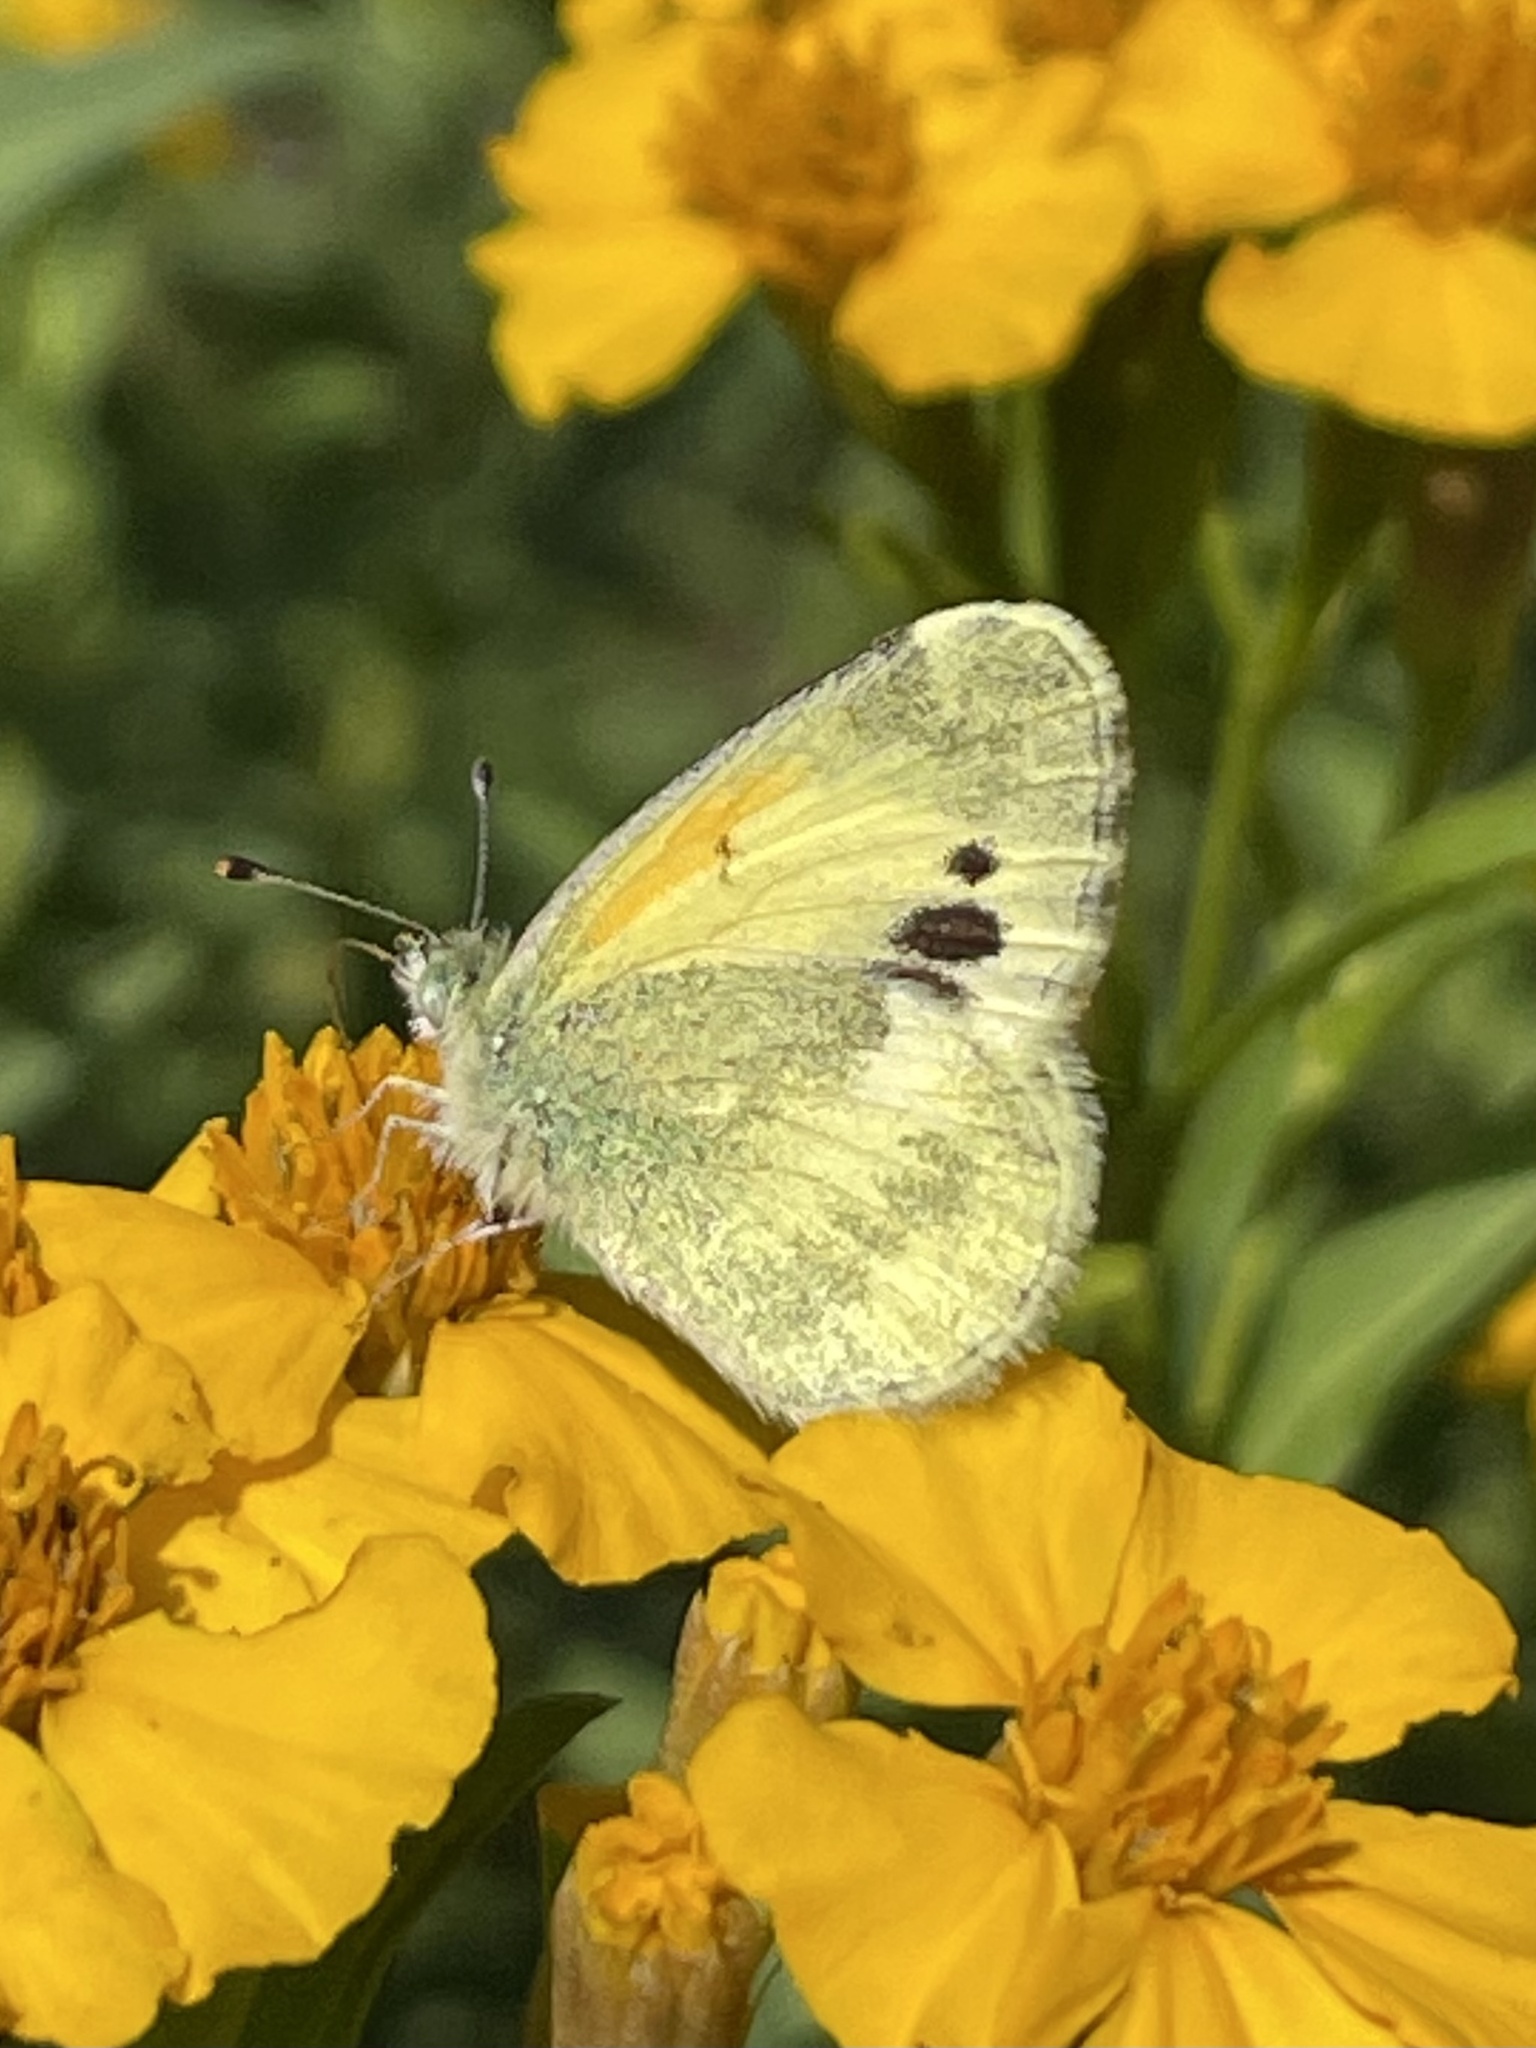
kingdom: Animalia
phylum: Arthropoda
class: Insecta
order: Lepidoptera
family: Pieridae
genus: Nathalis
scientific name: Nathalis iole
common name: Dainty sulphur
